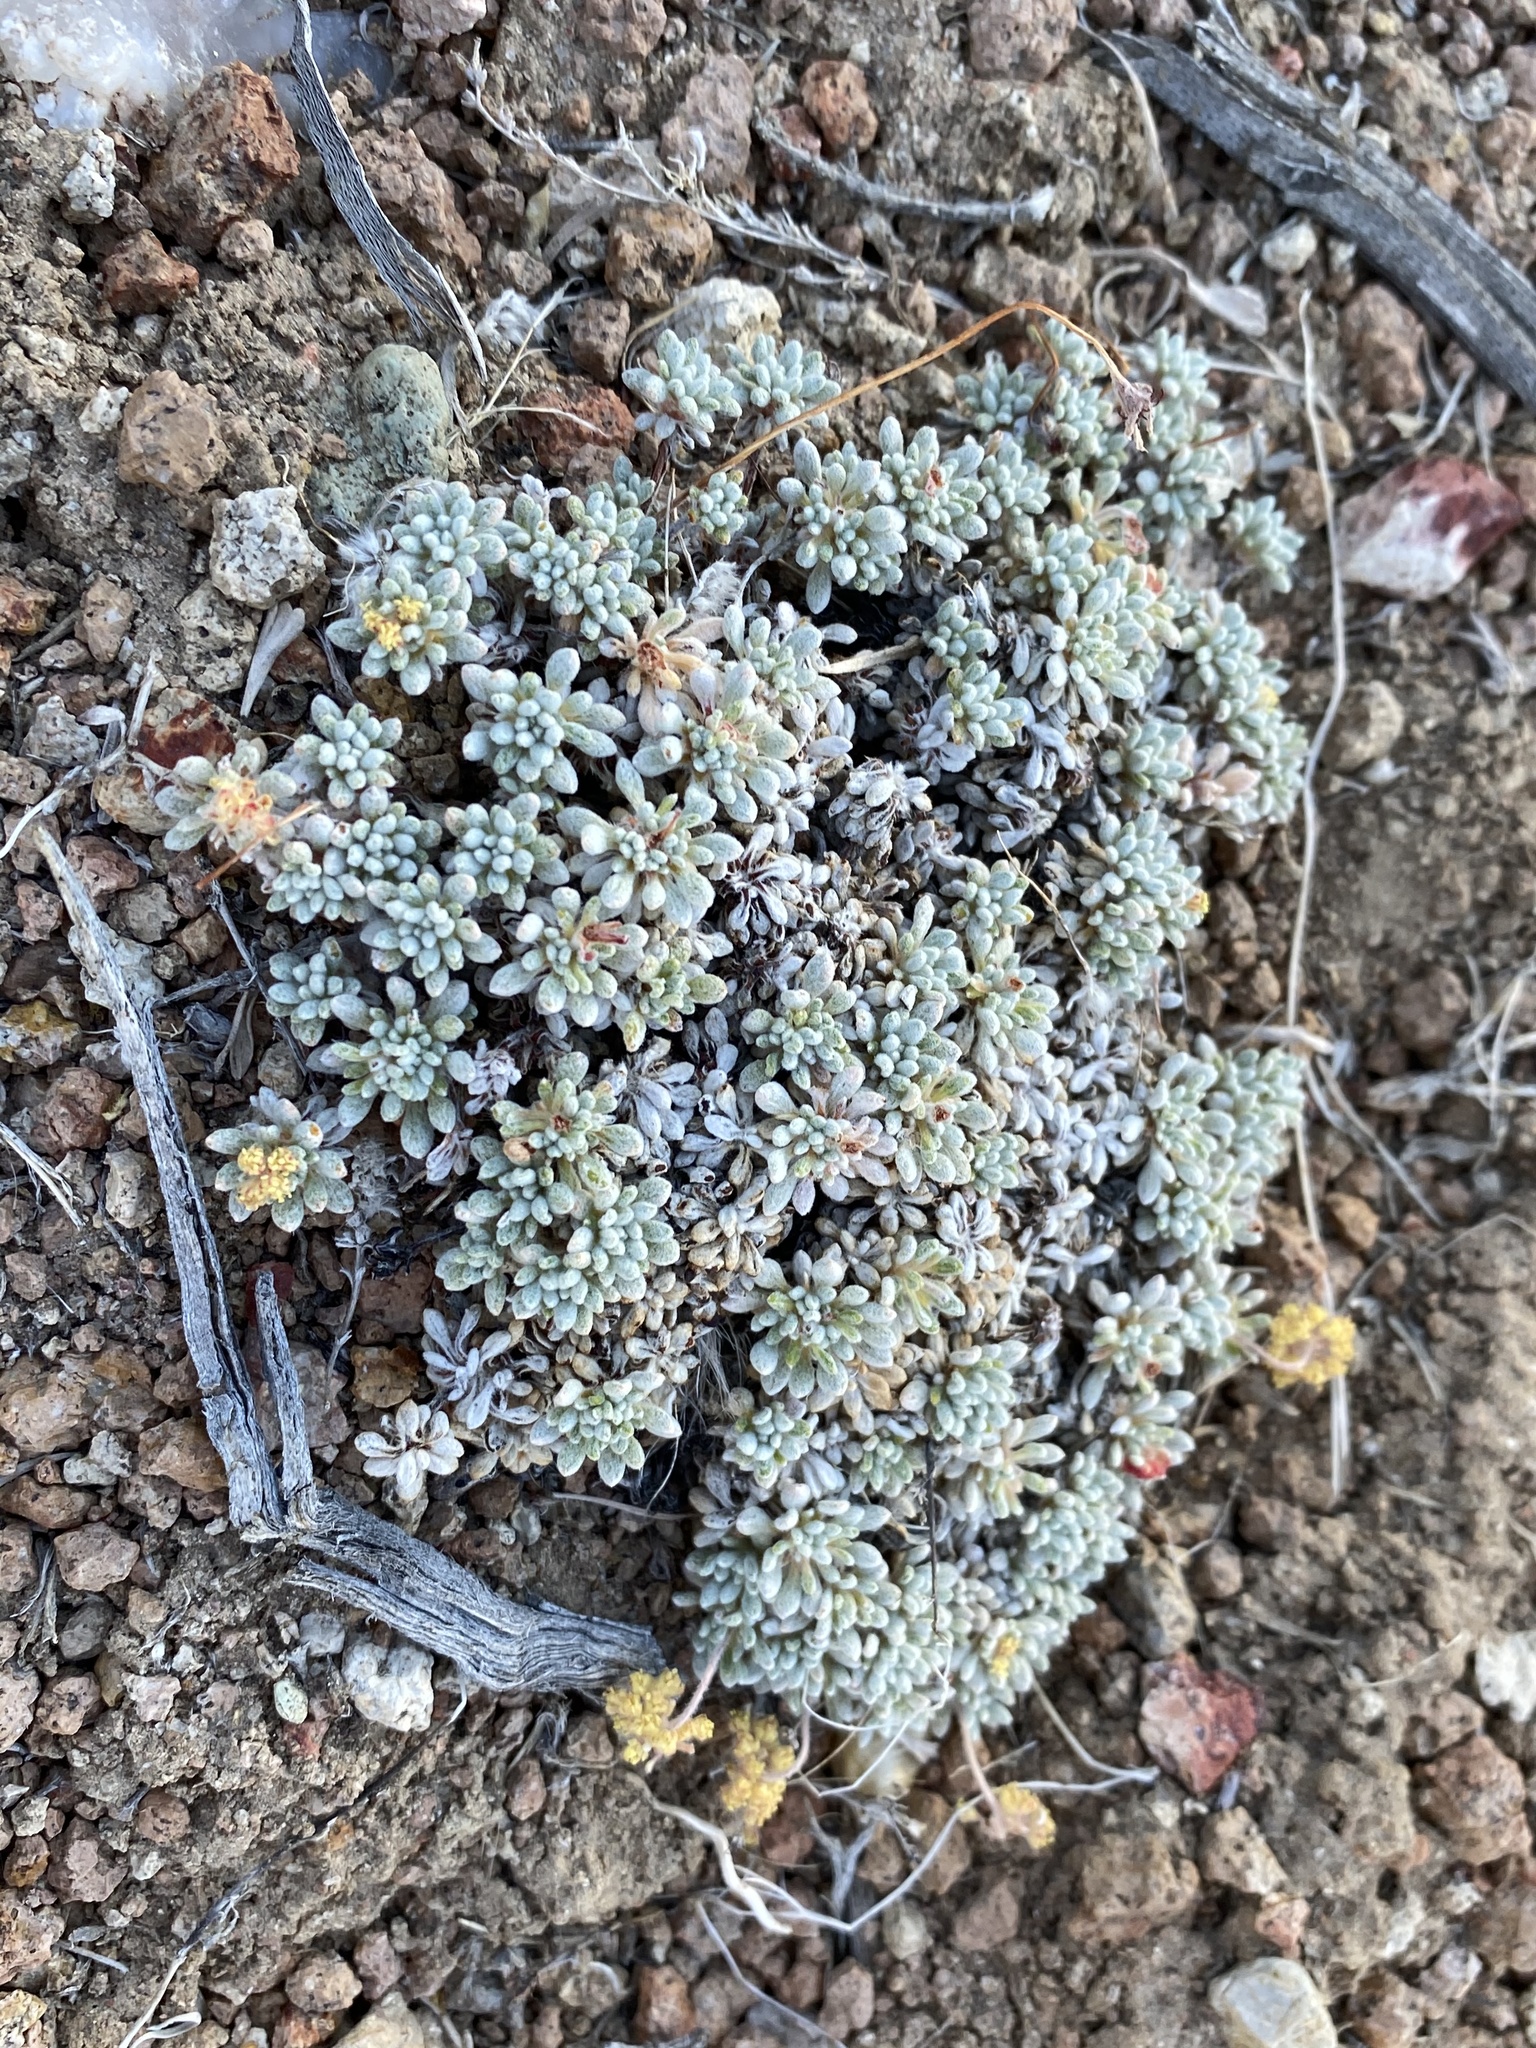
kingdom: Plantae
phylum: Tracheophyta
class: Magnoliopsida
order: Caryophyllales
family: Polygonaceae
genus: Eriogonum
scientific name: Eriogonum caespitosum
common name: Matted wild buckwheat
